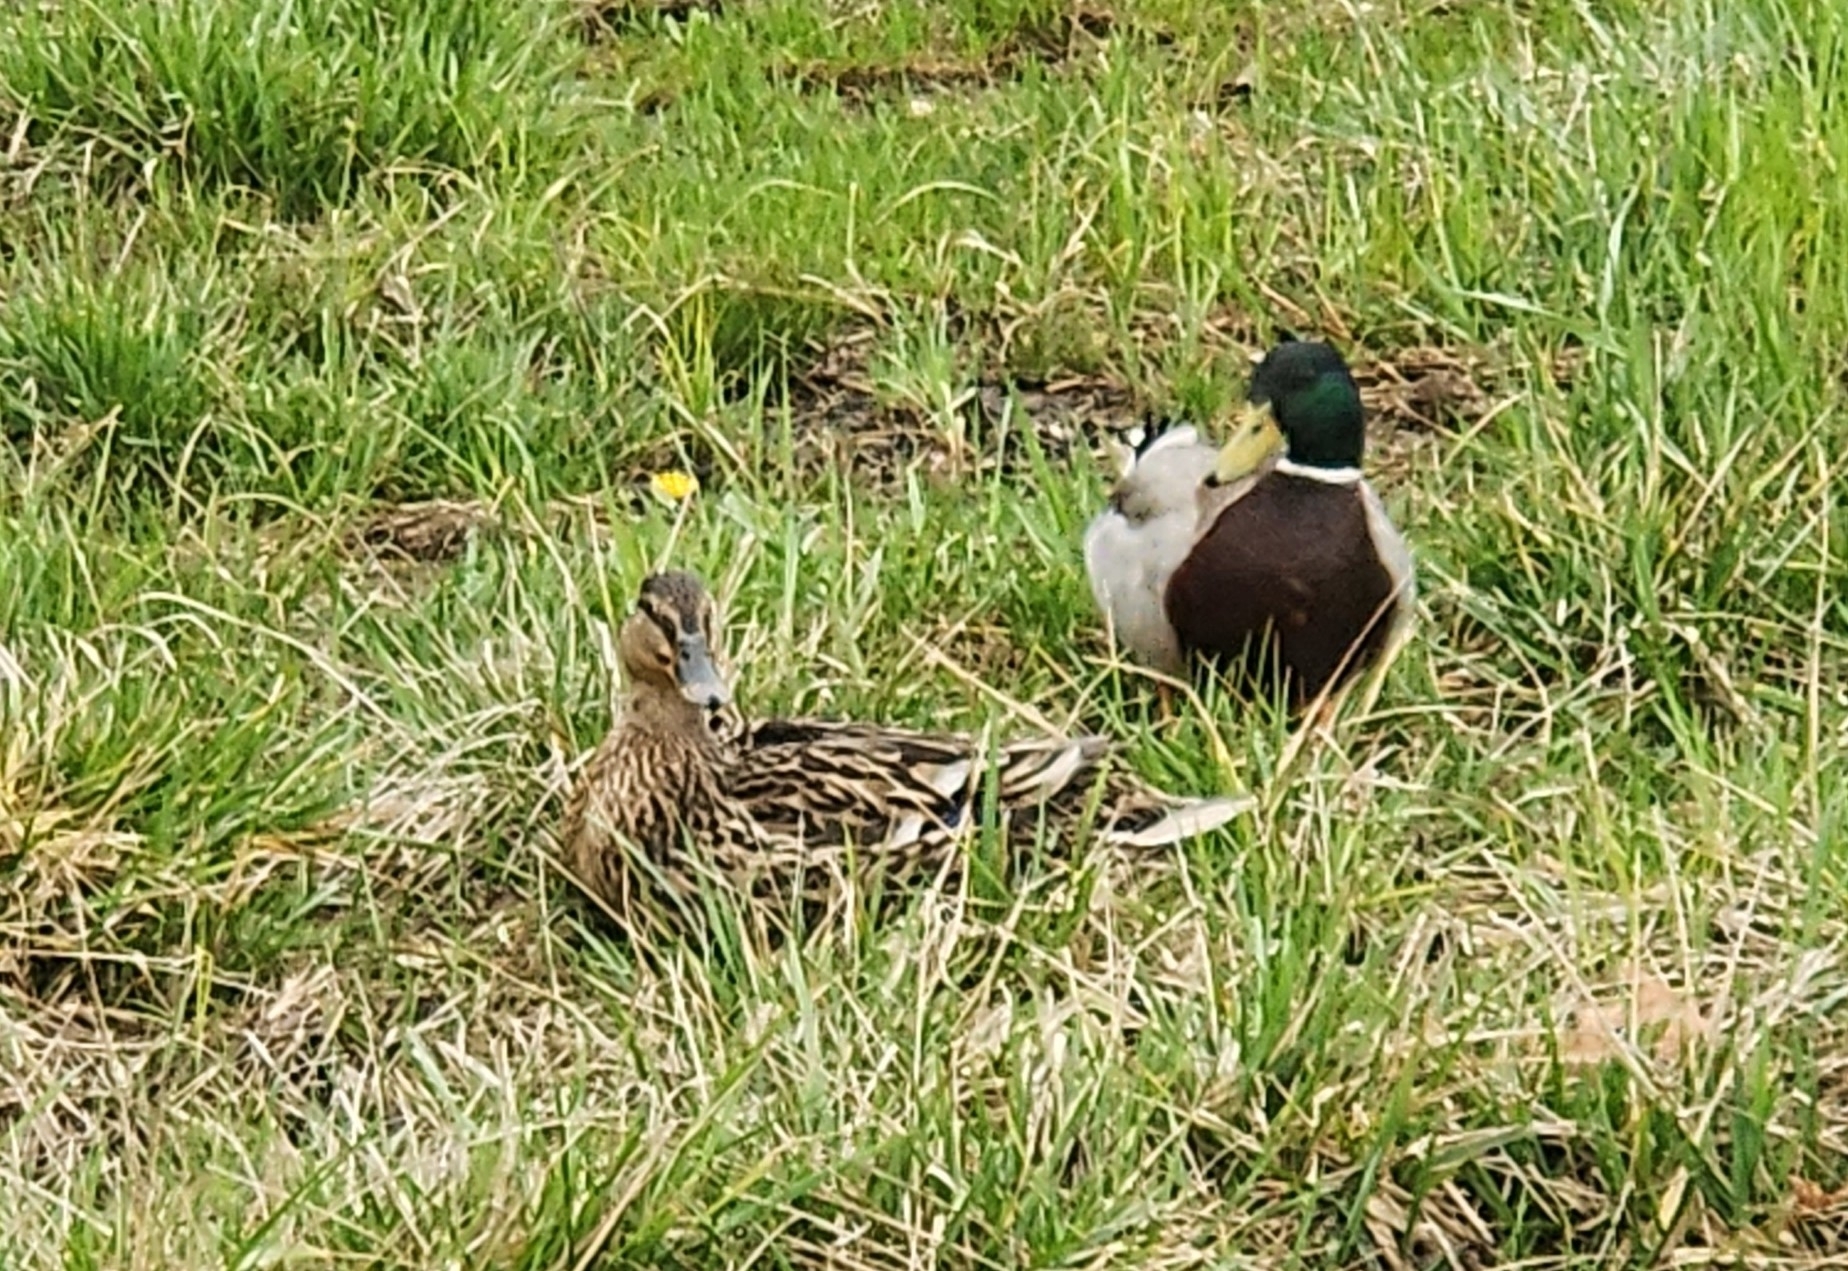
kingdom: Animalia
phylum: Chordata
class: Aves
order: Anseriformes
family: Anatidae
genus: Anas
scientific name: Anas platyrhynchos
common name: Mallard
